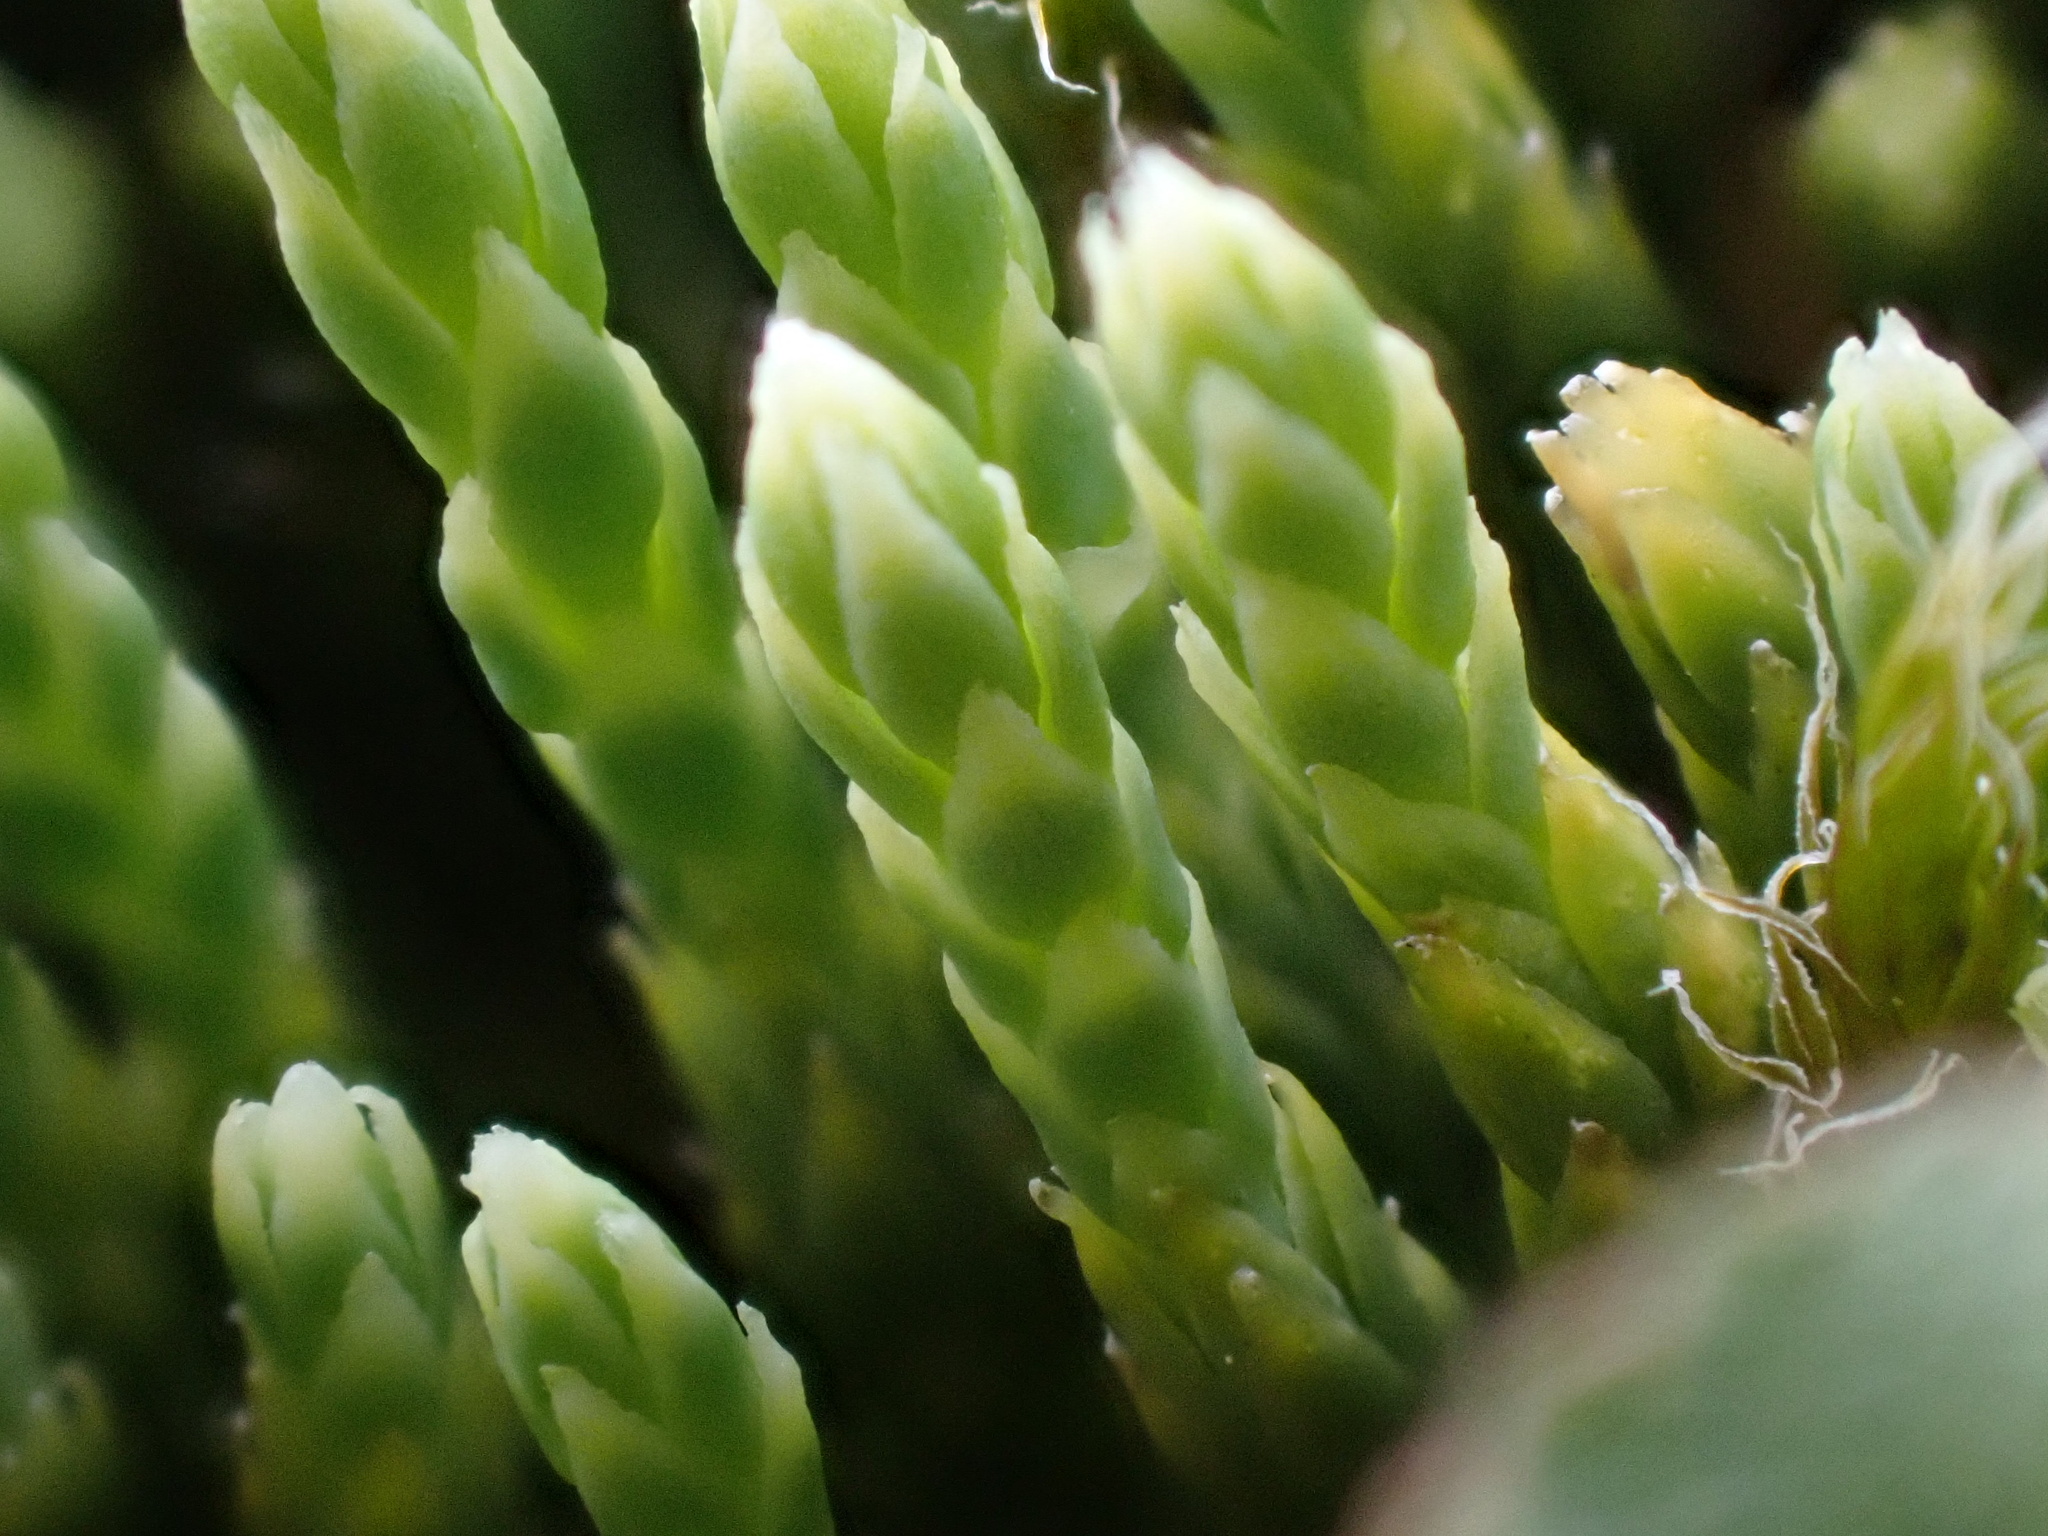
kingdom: Plantae
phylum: Tracheophyta
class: Lycopodiopsida
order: Lycopodiales
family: Lycopodiaceae
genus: Diphasiastrum
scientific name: Diphasiastrum alpinum
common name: Alpine clubmoss
